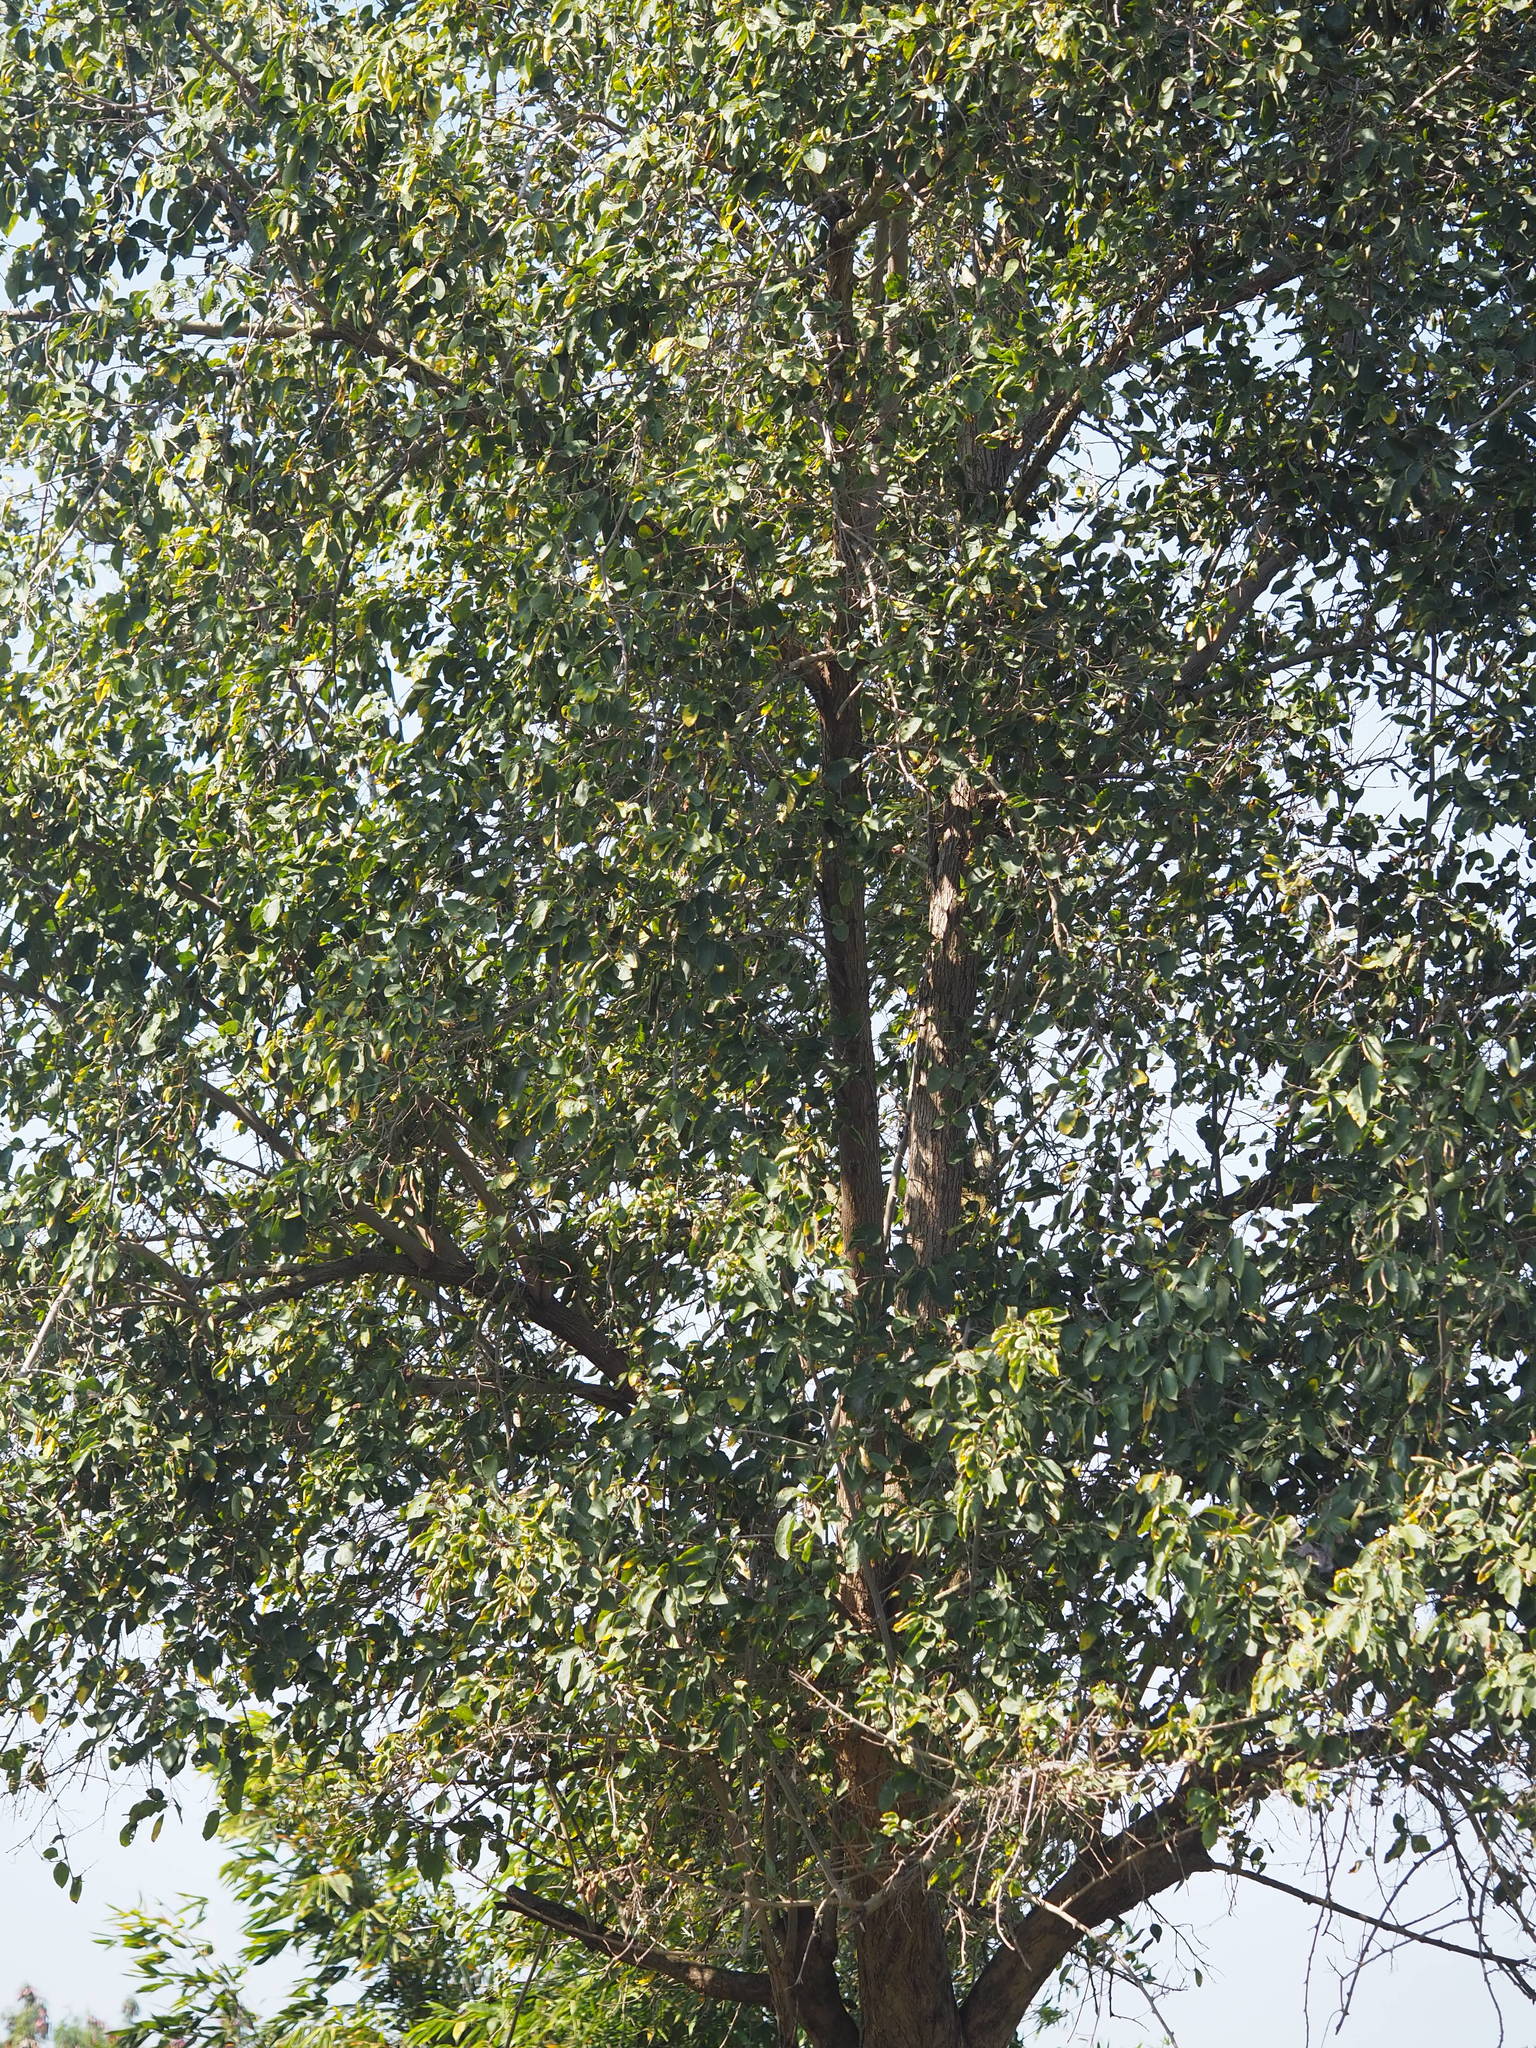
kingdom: Plantae
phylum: Tracheophyta
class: Magnoliopsida
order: Boraginales
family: Cordiaceae
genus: Cordia
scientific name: Cordia dichotoma
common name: Fragrant manjack
